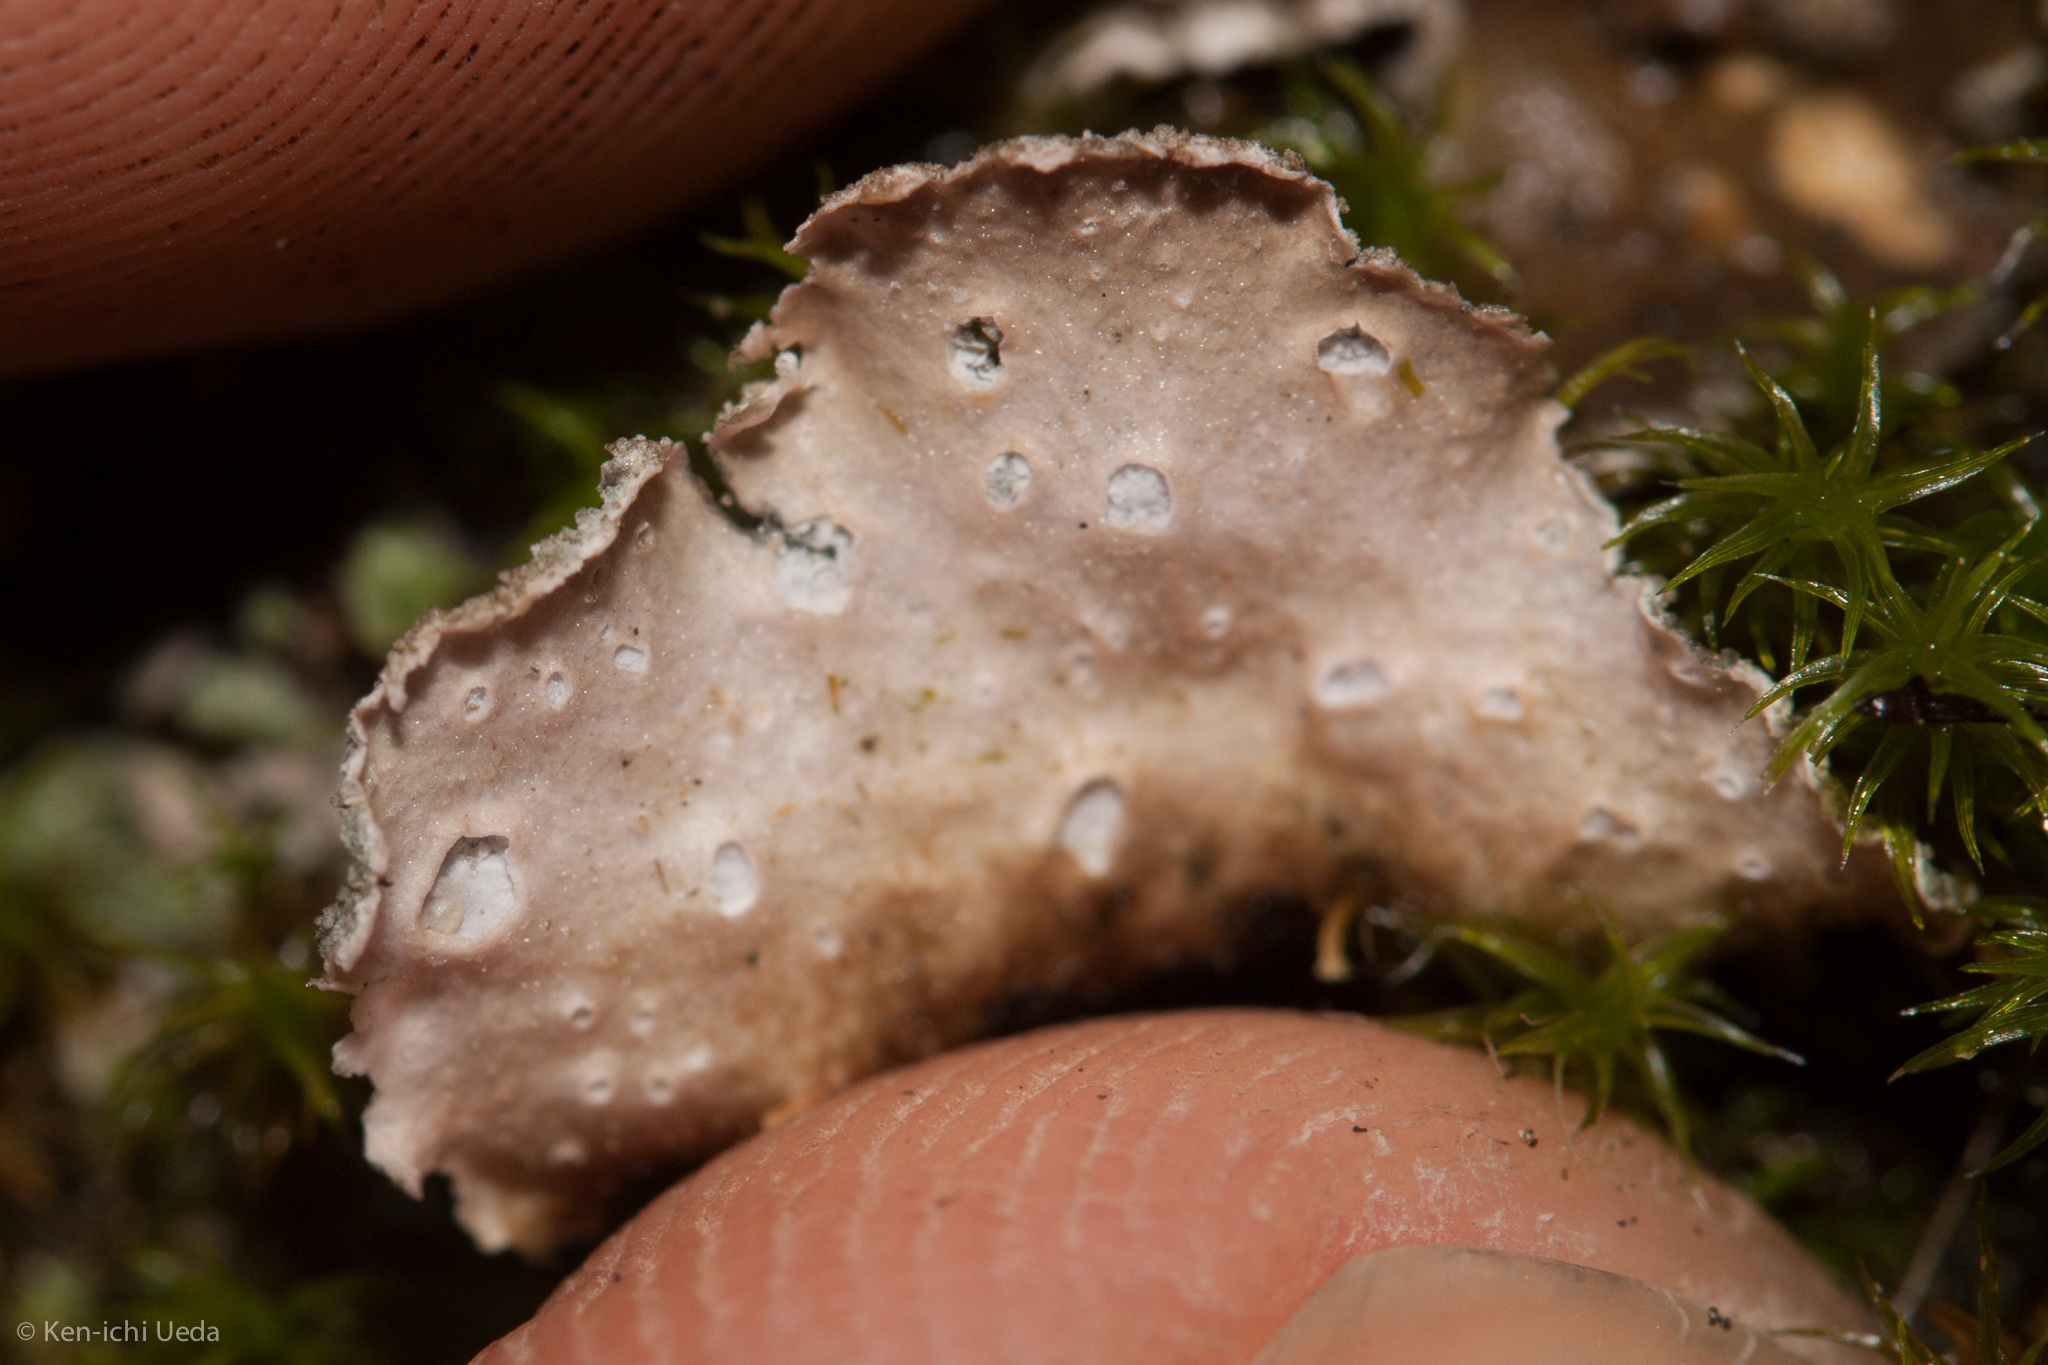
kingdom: Fungi
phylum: Ascomycota
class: Lecanoromycetes
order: Peltigerales
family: Lobariaceae
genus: Sticta
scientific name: Sticta limbata
